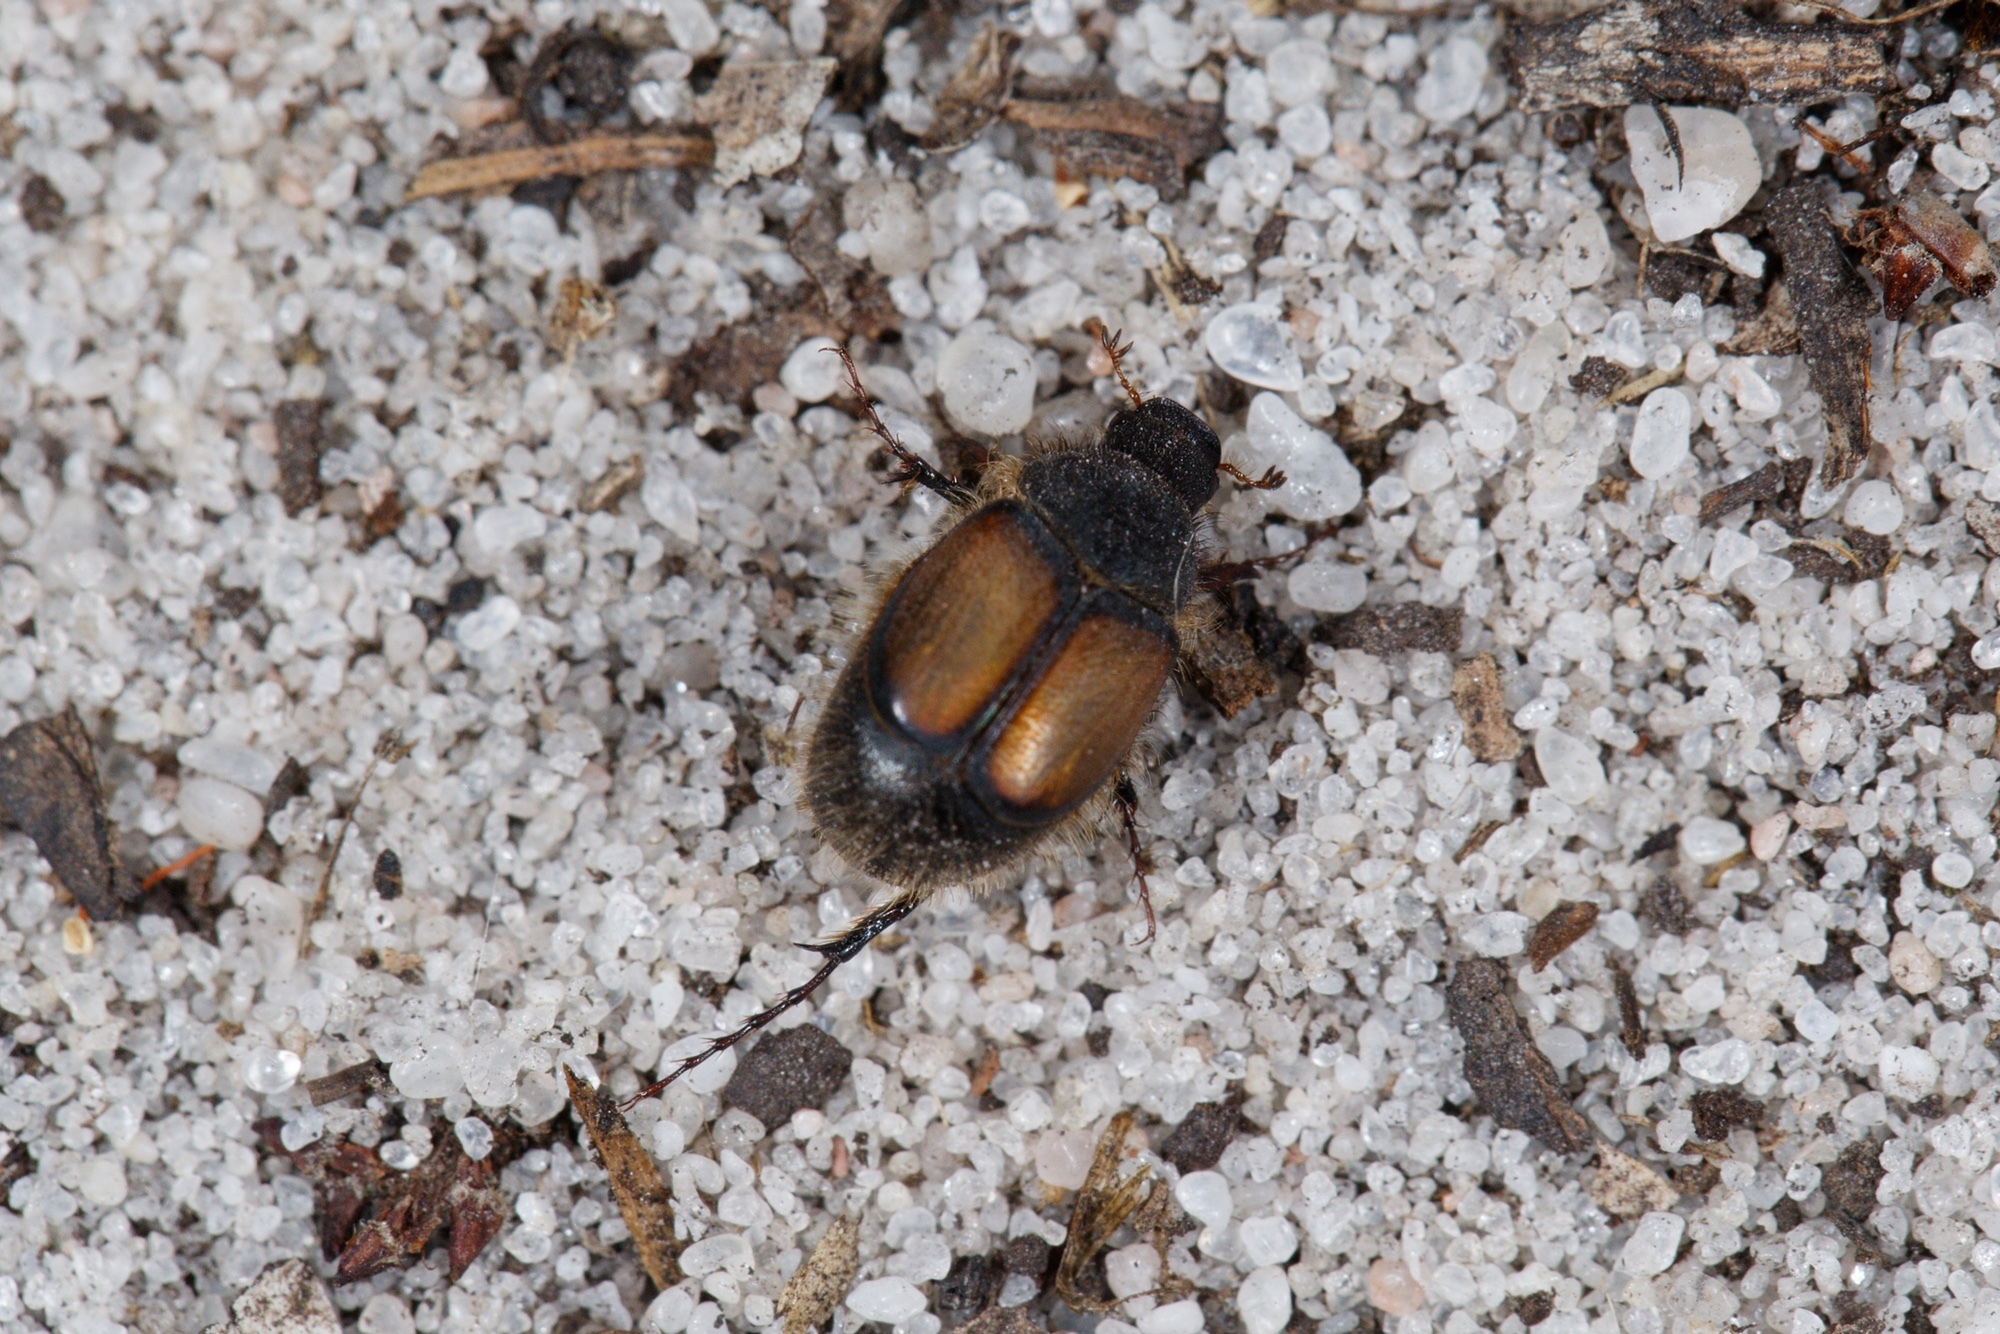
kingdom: Animalia
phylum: Arthropoda
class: Insecta
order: Coleoptera
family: Scarabaeidae
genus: Liparetrus
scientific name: Liparetrus discipennis
